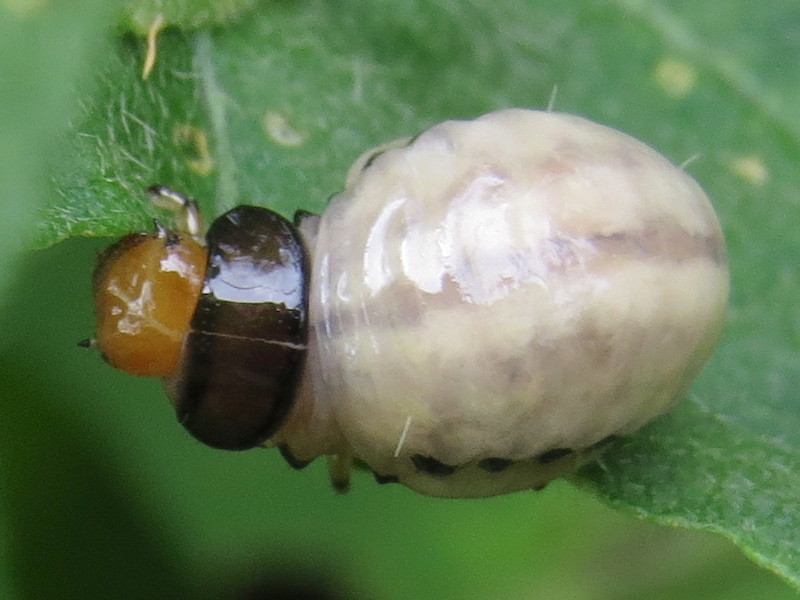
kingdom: Animalia
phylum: Arthropoda
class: Insecta
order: Coleoptera
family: Chrysomelidae
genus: Leptinotarsa
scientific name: Leptinotarsa juncta
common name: False potato beetle
